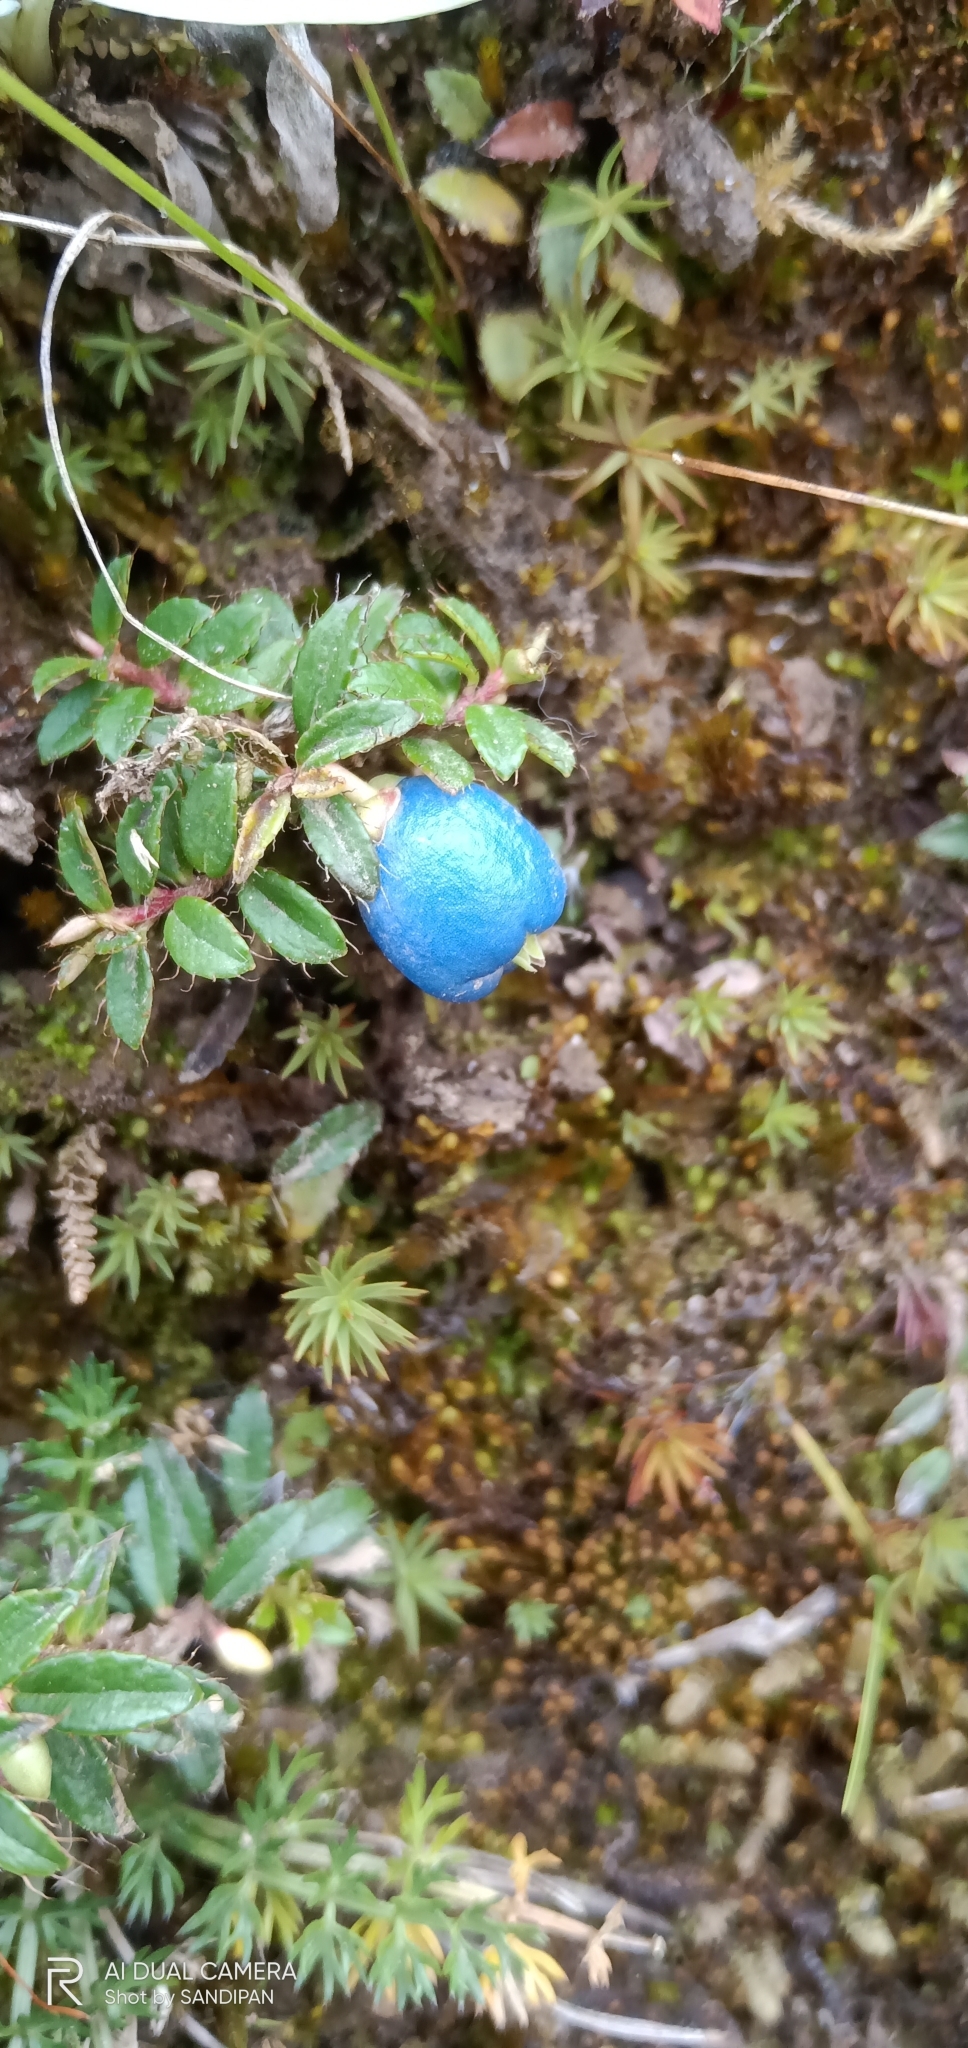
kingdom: Plantae
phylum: Tracheophyta
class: Magnoliopsida
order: Ericales
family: Ericaceae
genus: Gaultheria
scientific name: Gaultheria trichophylla
